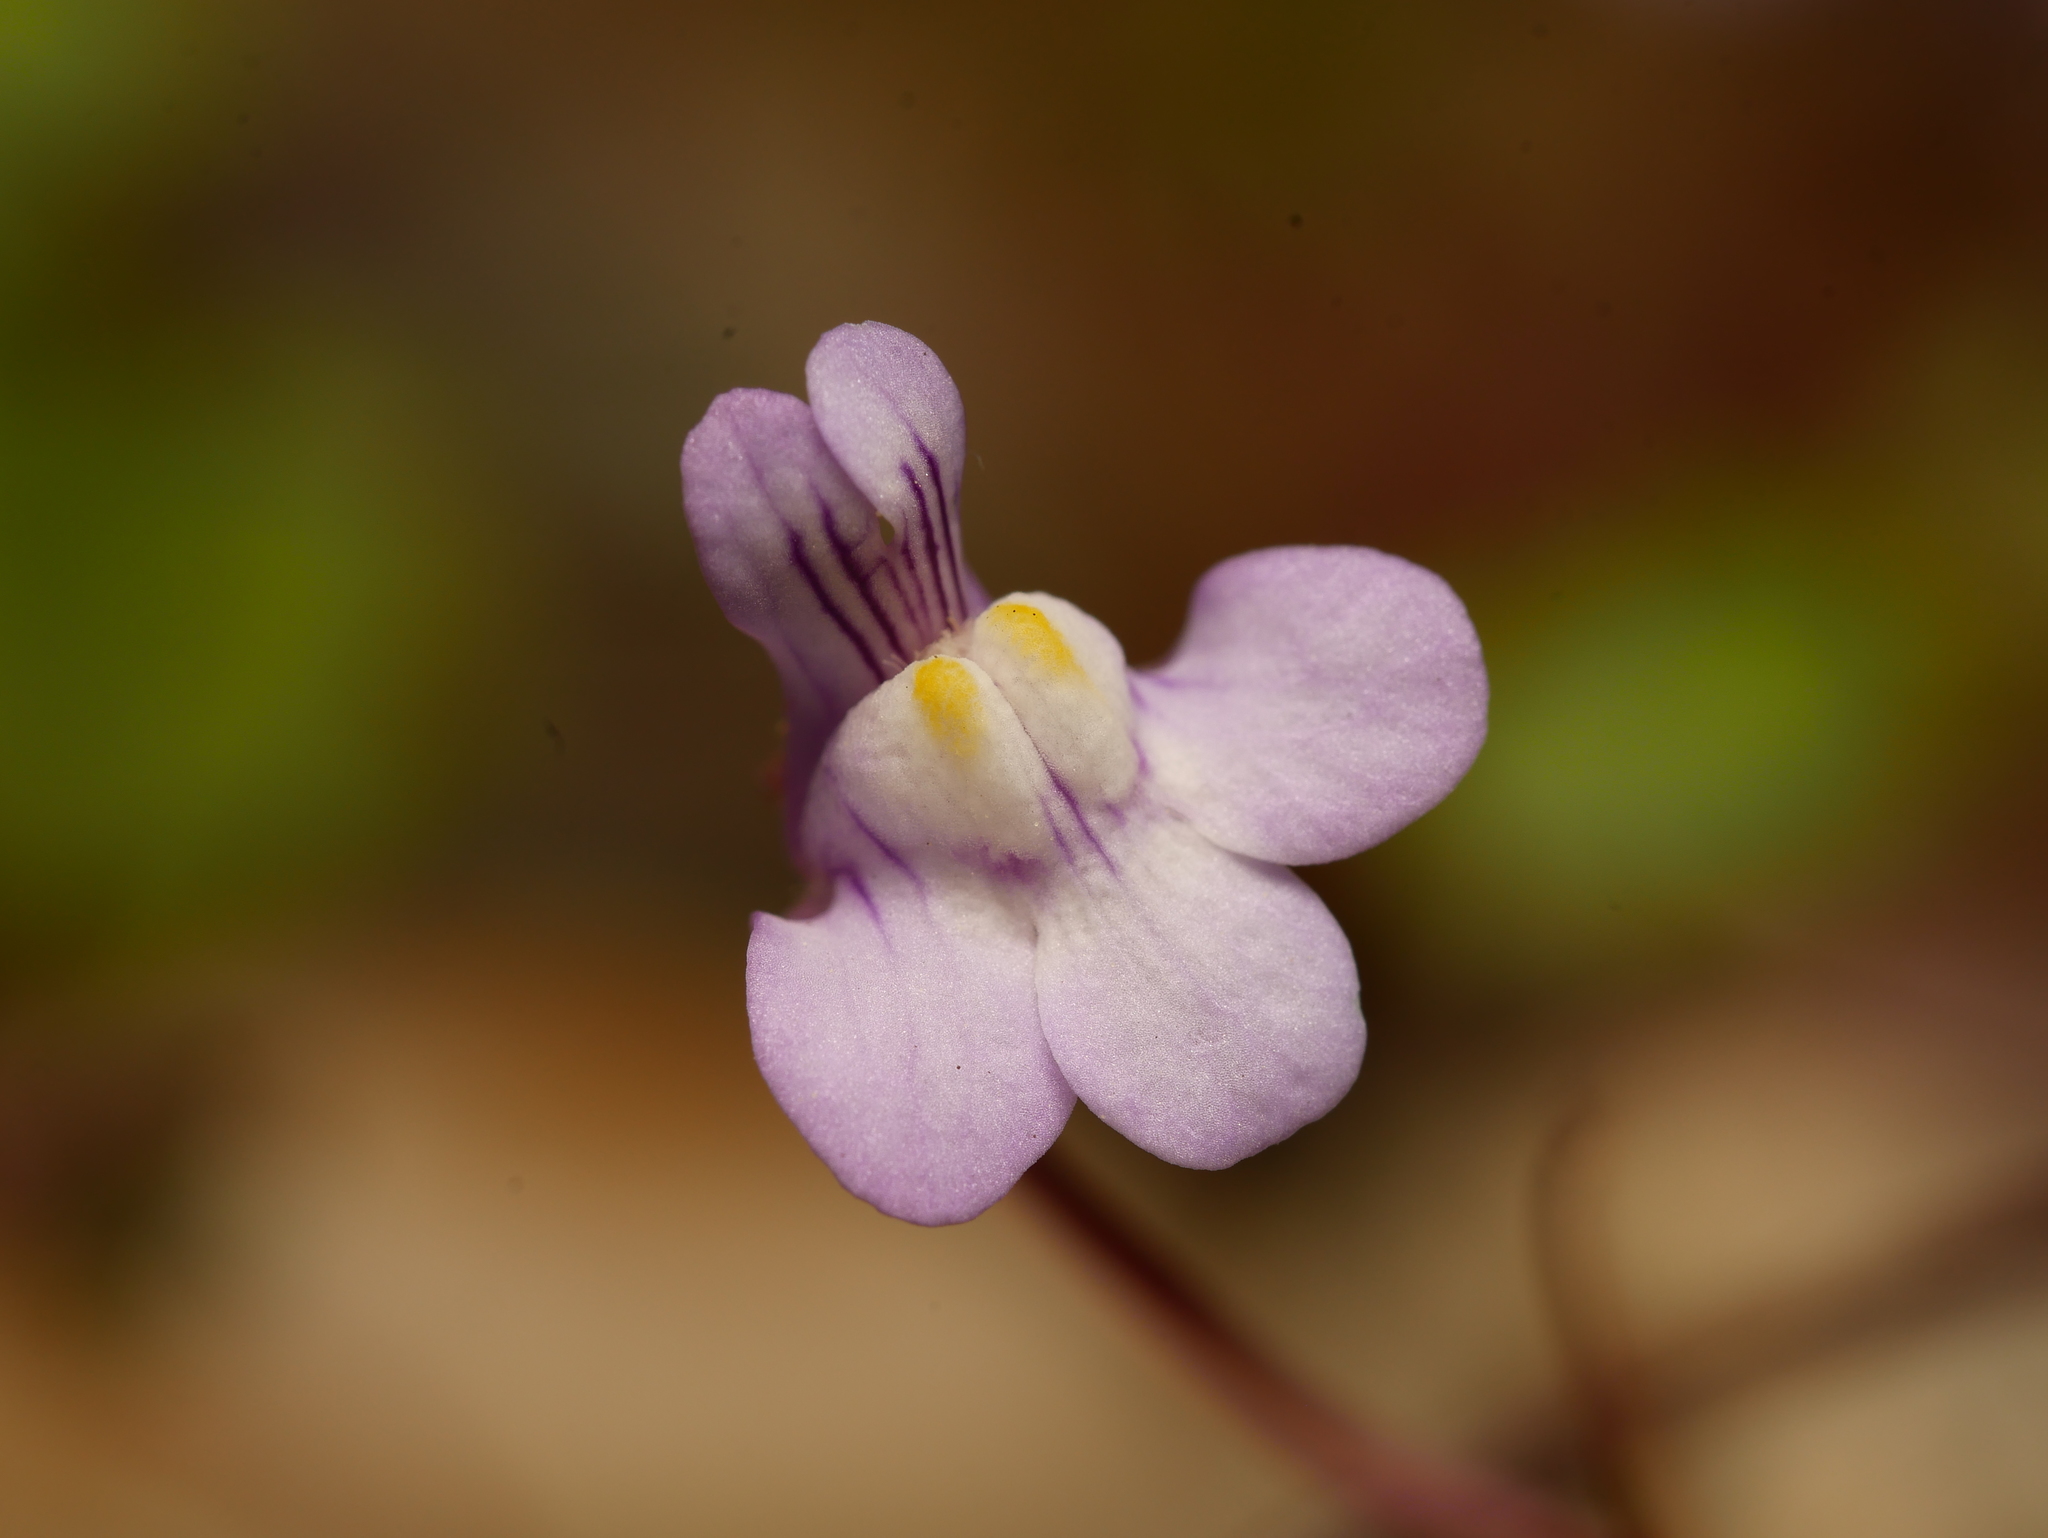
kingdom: Plantae
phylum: Tracheophyta
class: Magnoliopsida
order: Lamiales
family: Plantaginaceae
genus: Cymbalaria
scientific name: Cymbalaria muralis
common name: Ivy-leaved toadflax
